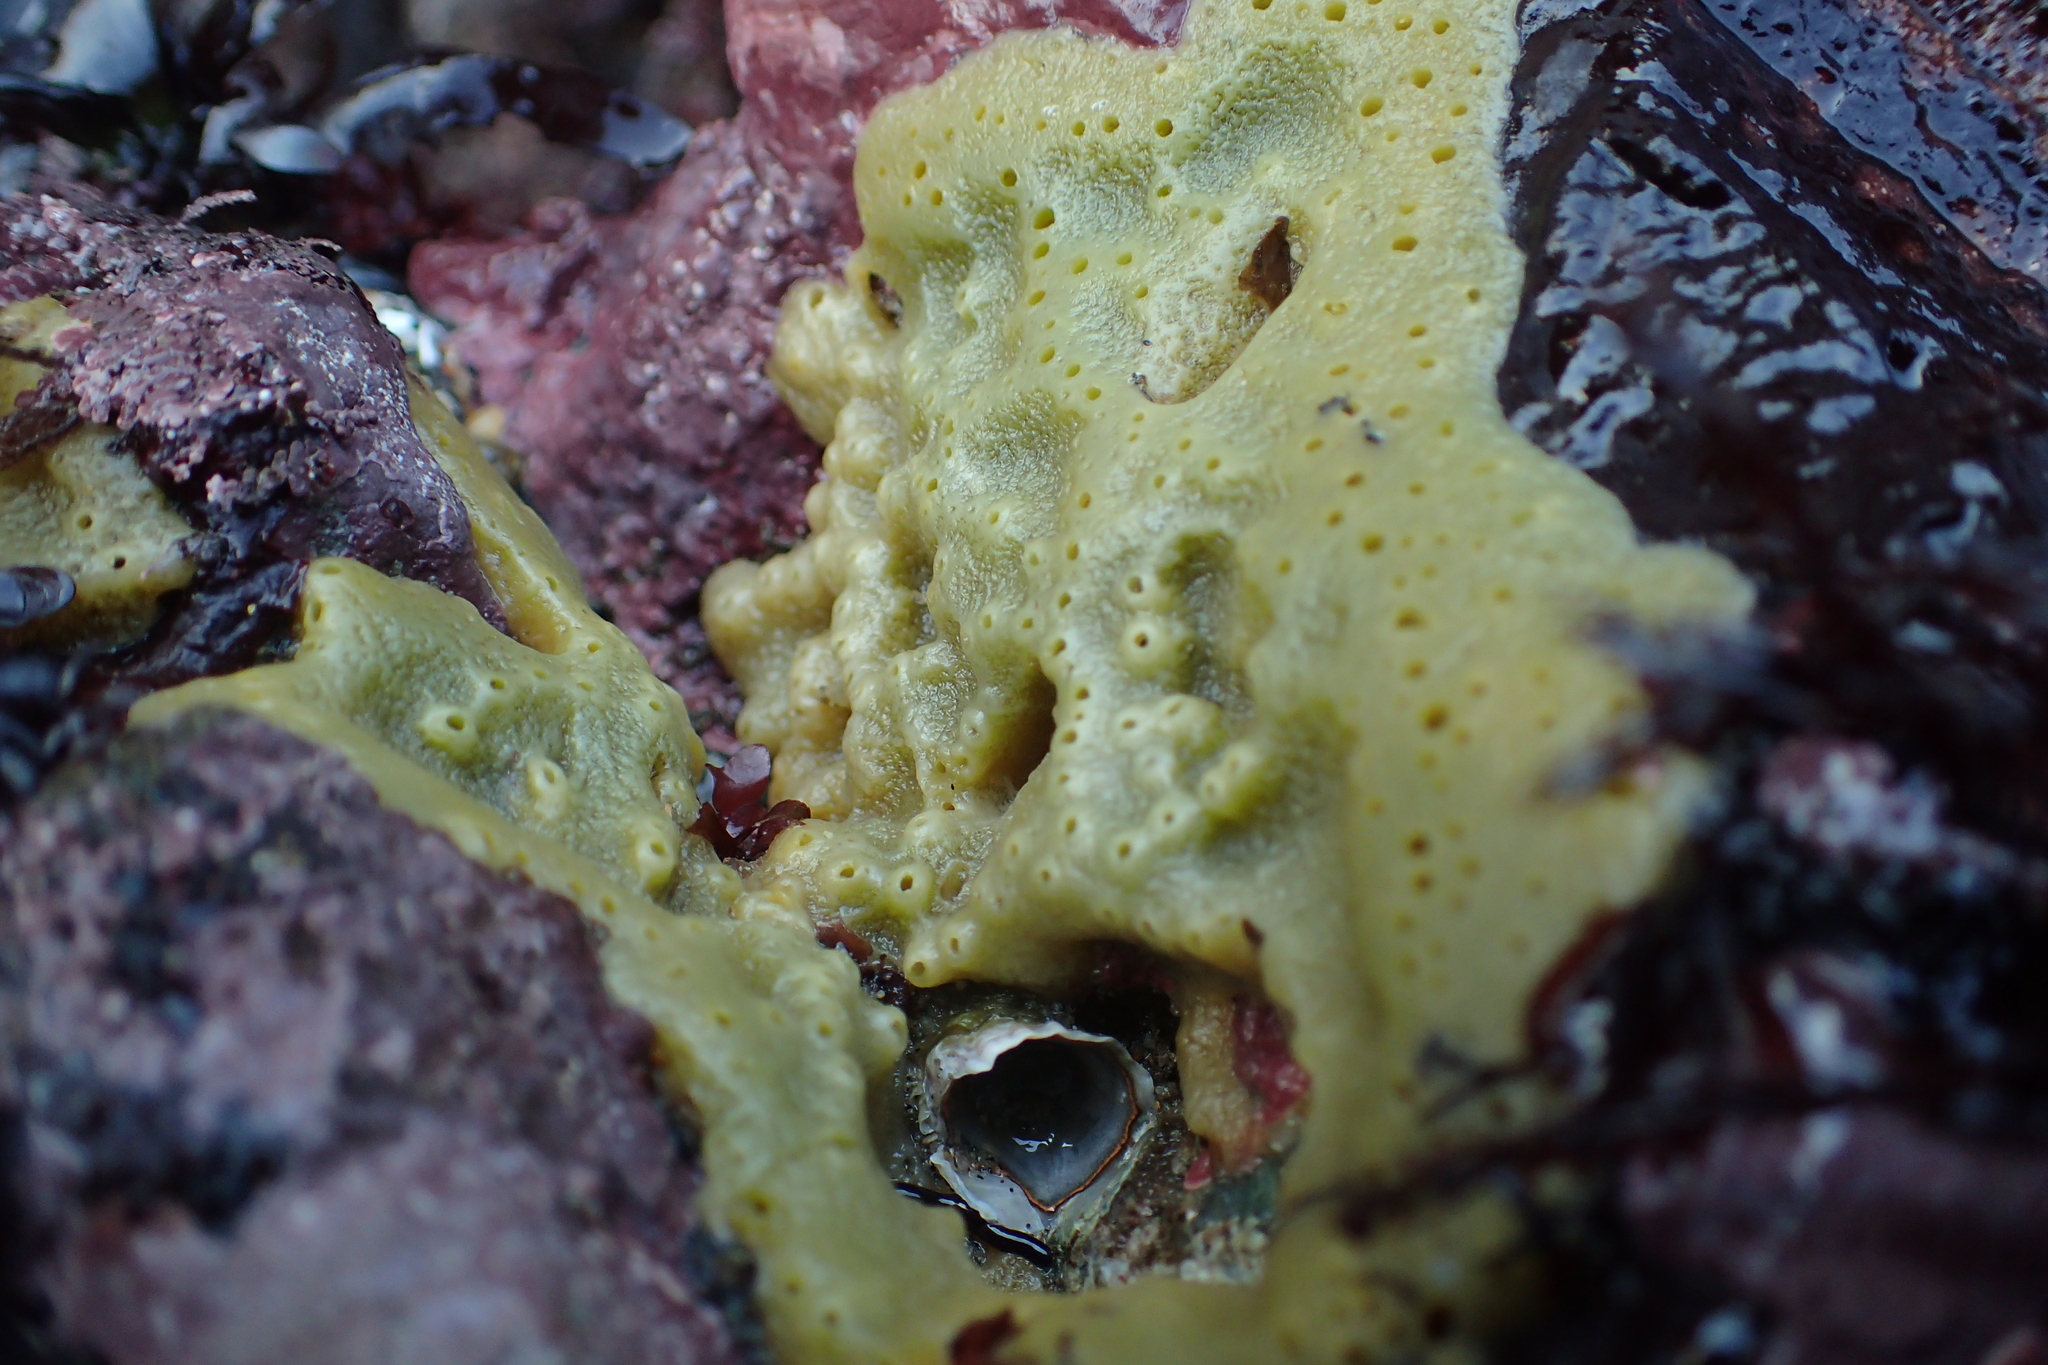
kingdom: Animalia
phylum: Porifera
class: Demospongiae
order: Suberitida
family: Halichondriidae
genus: Halichondria
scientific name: Halichondria panicea
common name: Breadcrumb sponge
